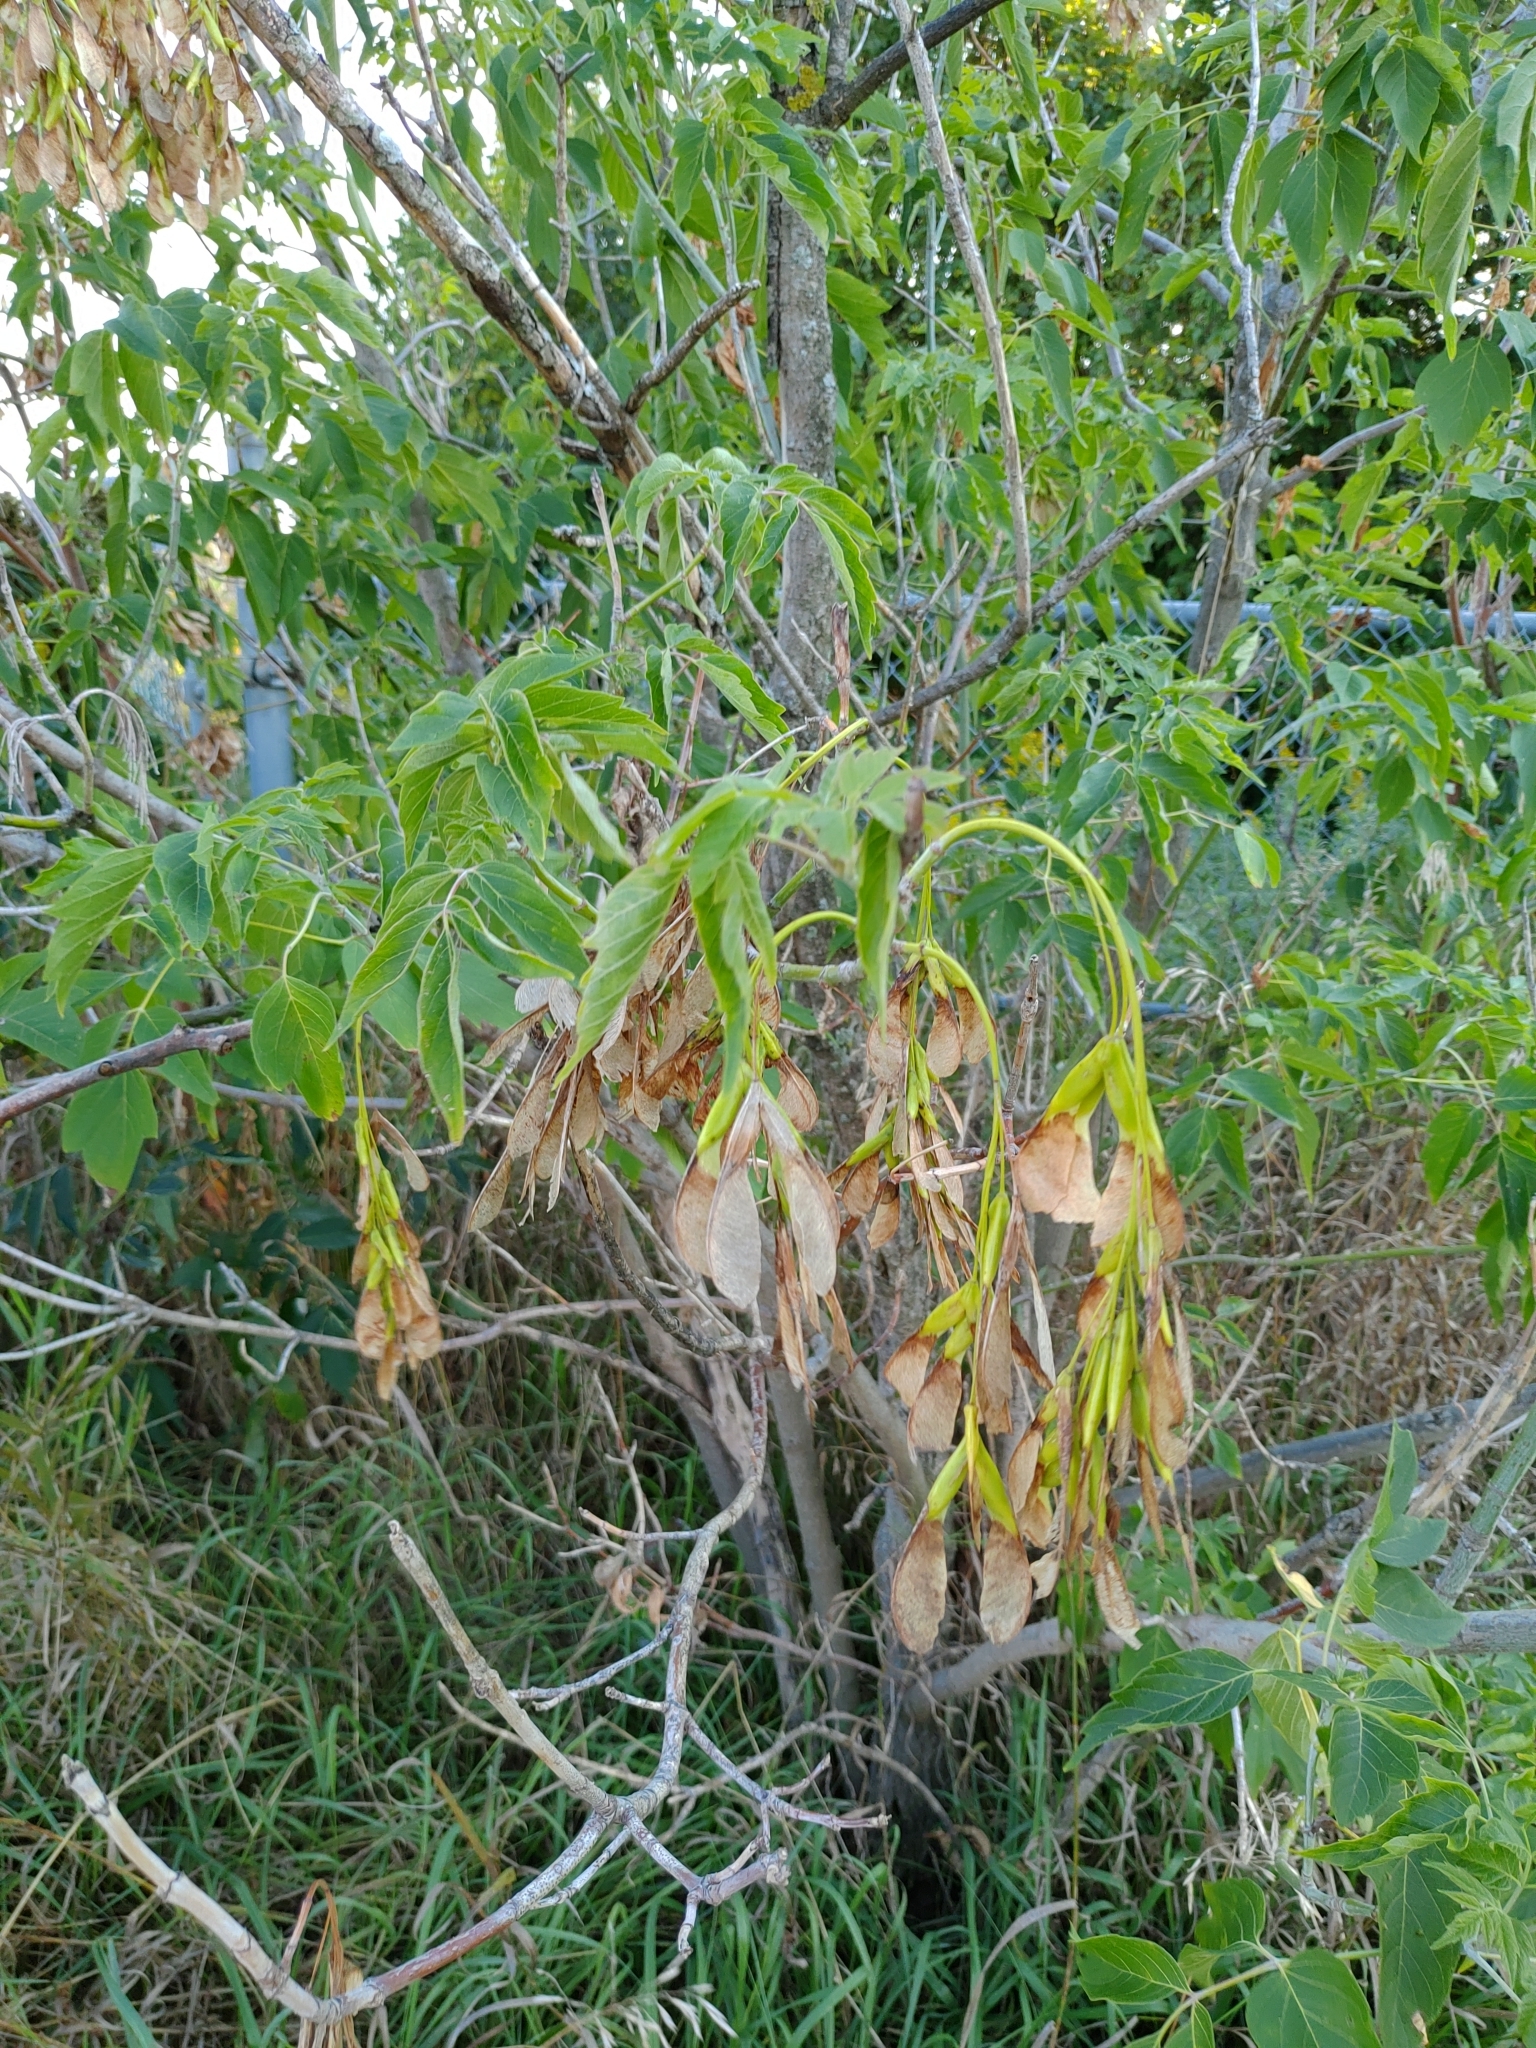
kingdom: Plantae
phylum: Tracheophyta
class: Magnoliopsida
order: Sapindales
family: Sapindaceae
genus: Acer
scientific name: Acer negundo
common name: Ashleaf maple
